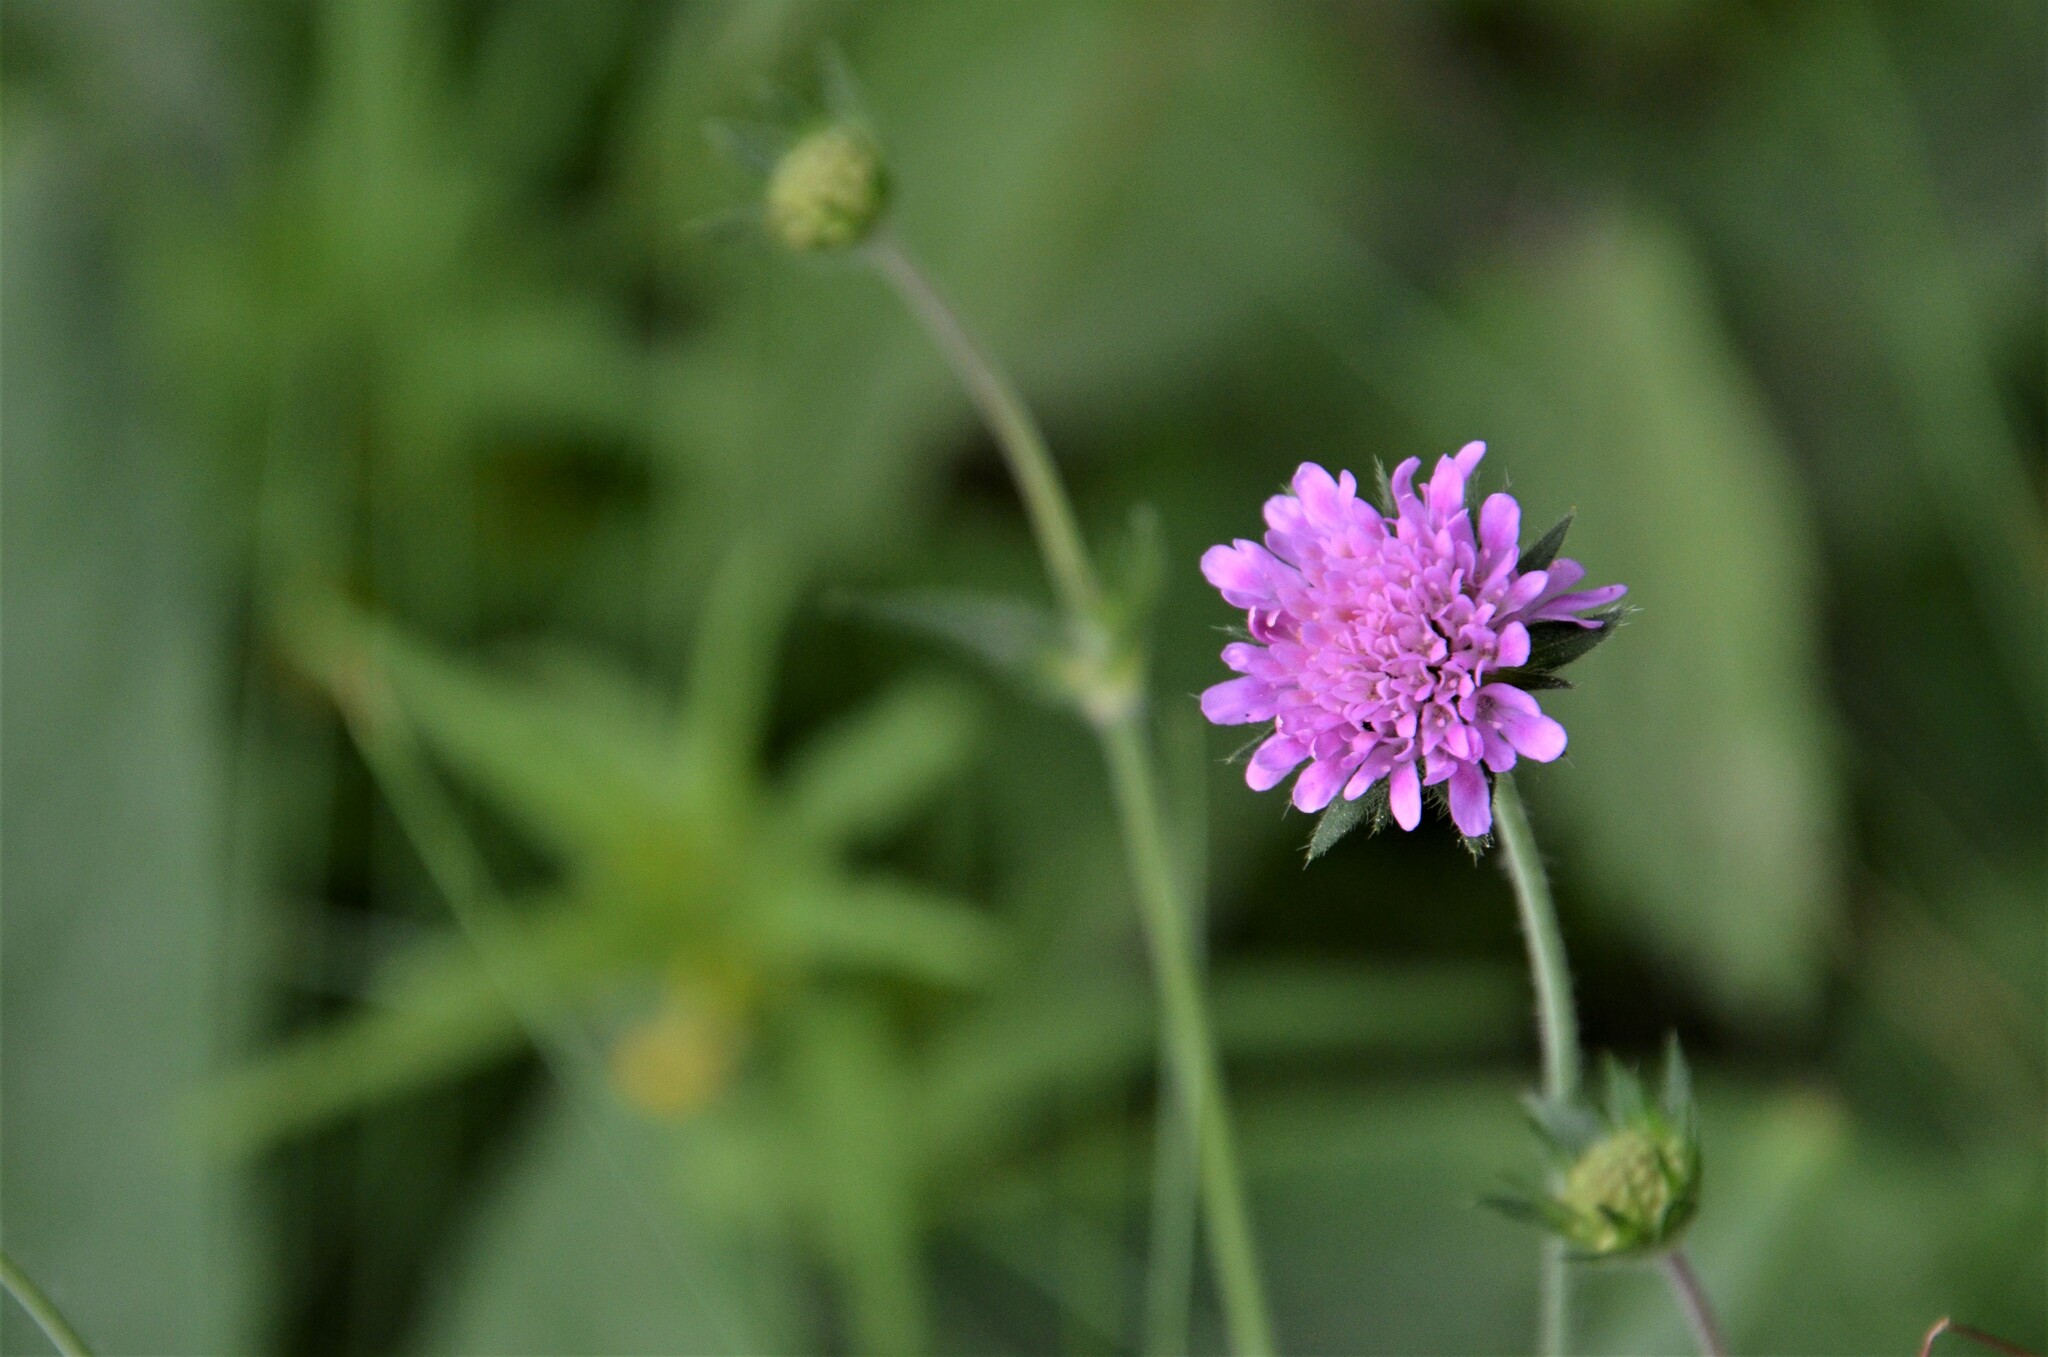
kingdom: Plantae
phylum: Tracheophyta
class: Magnoliopsida
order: Dipsacales
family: Caprifoliaceae
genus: Knautia
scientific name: Knautia arvensis
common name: Field scabiosa
